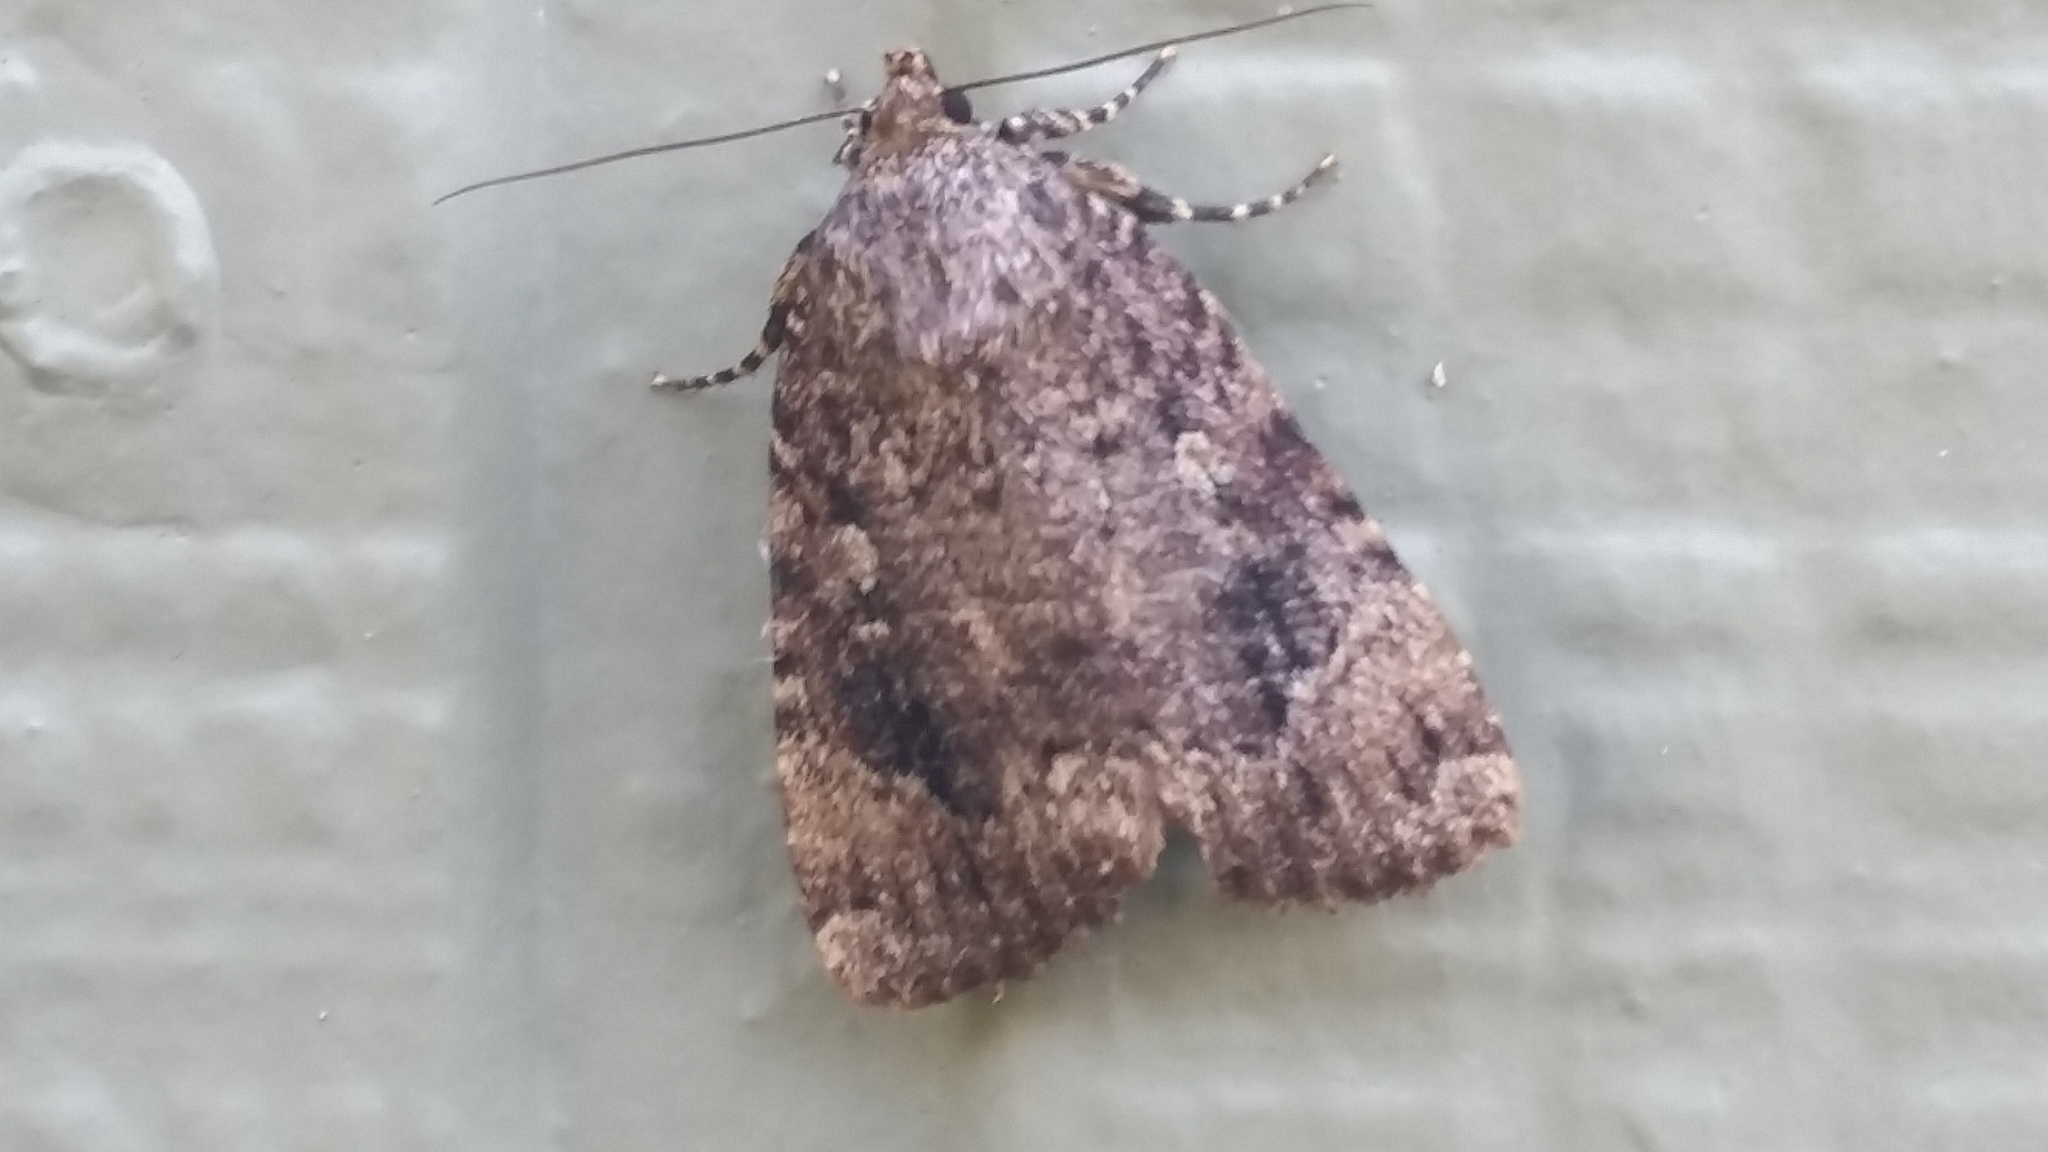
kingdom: Animalia
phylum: Arthropoda
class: Insecta
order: Lepidoptera
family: Noctuidae
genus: Amphipyra
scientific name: Amphipyra pyramidoides
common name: American copper underwing
